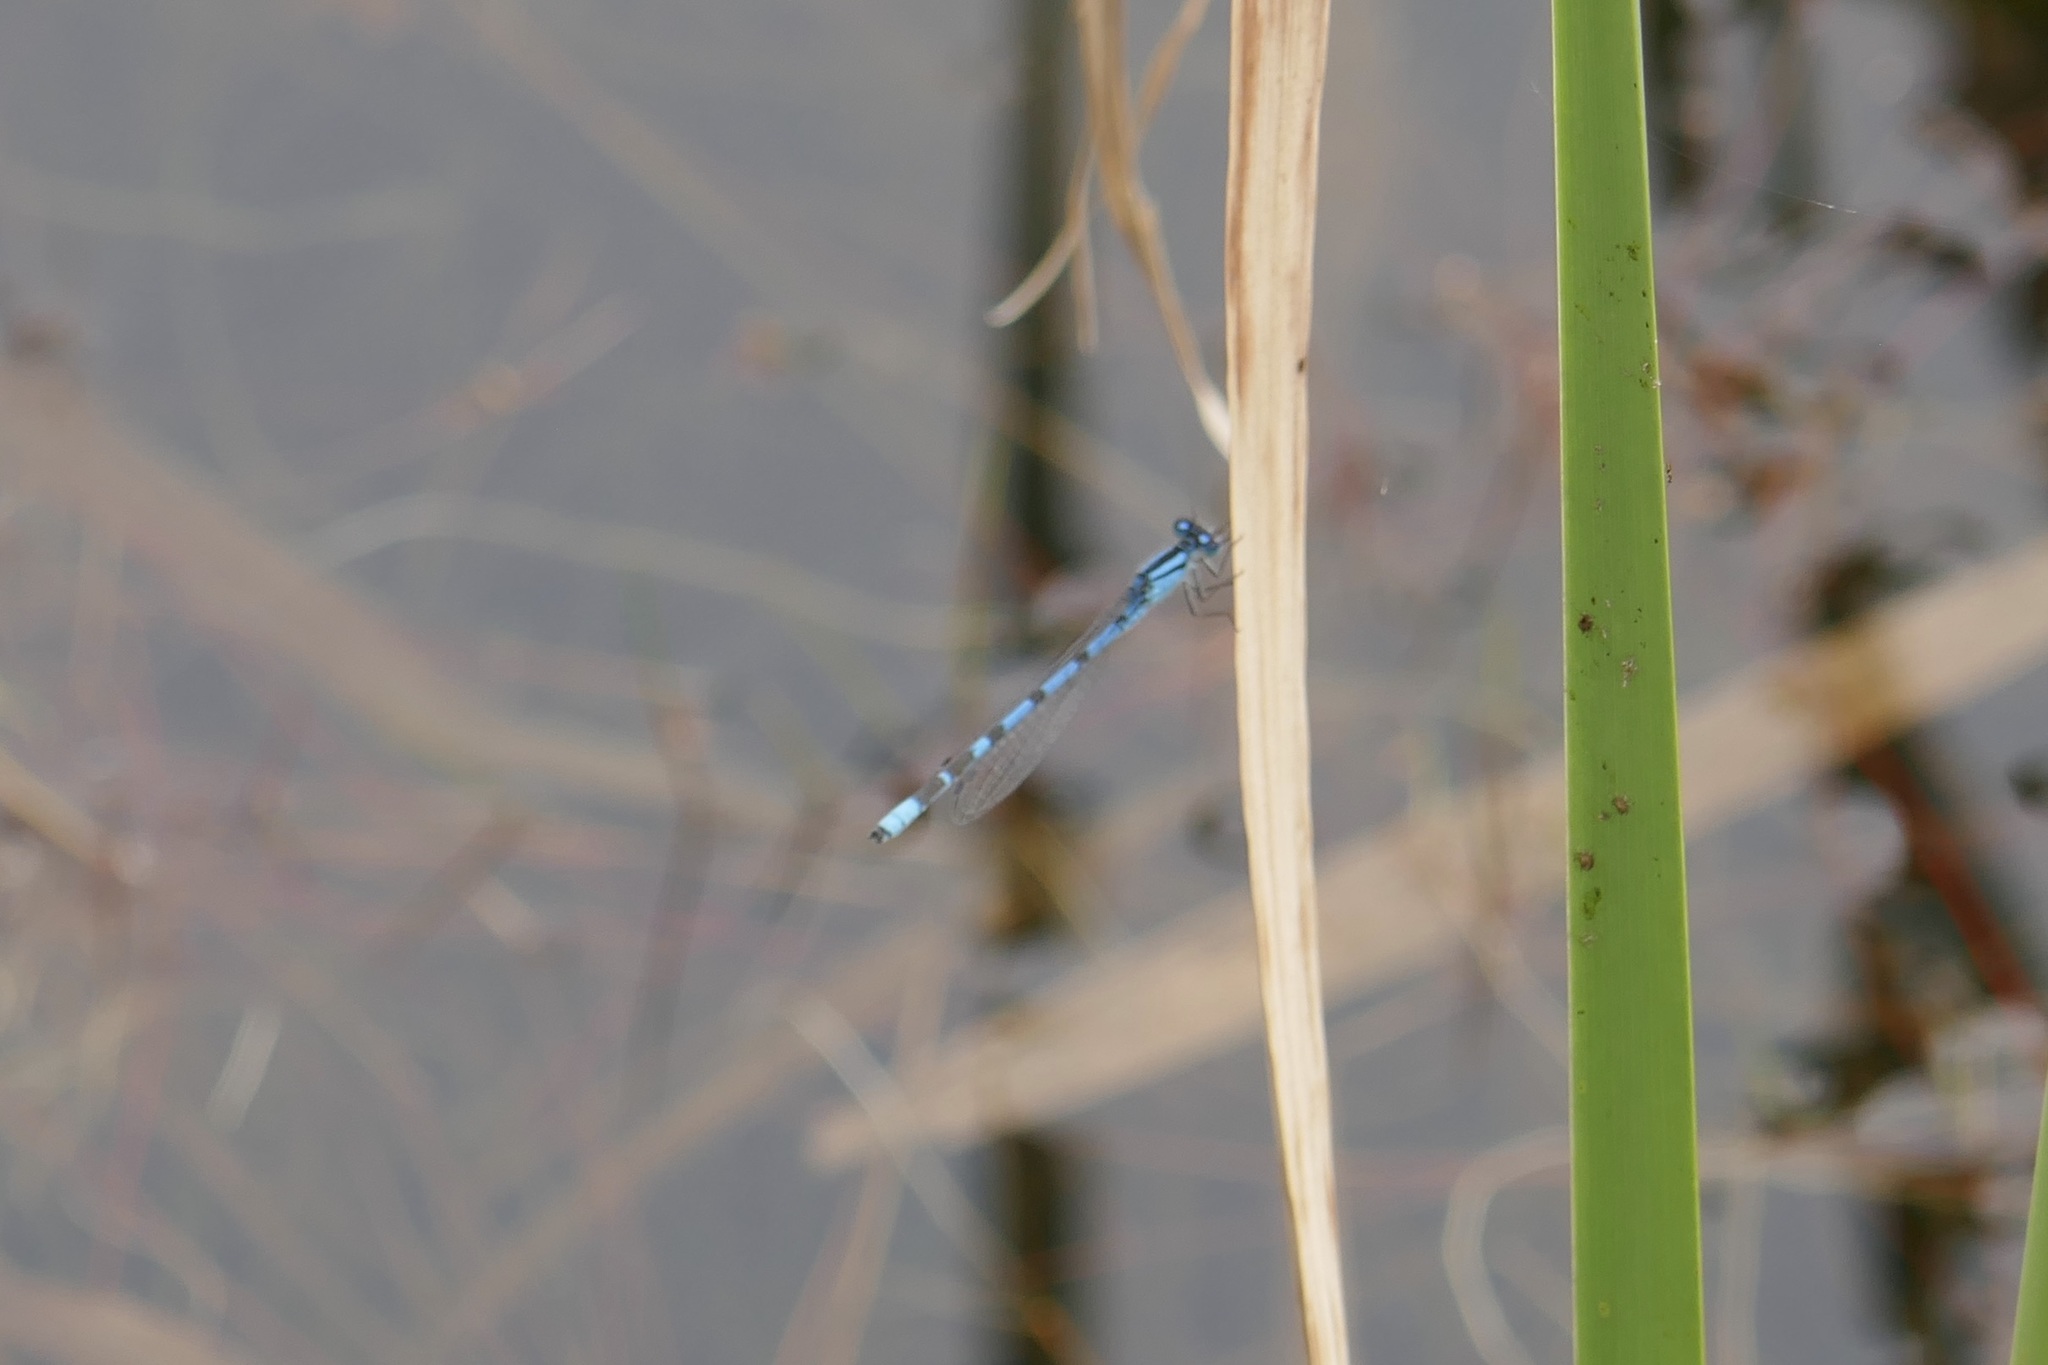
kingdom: Animalia
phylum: Arthropoda
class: Insecta
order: Odonata
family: Coenagrionidae
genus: Enallagma
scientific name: Enallagma cyathigerum
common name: Common blue damselfly
